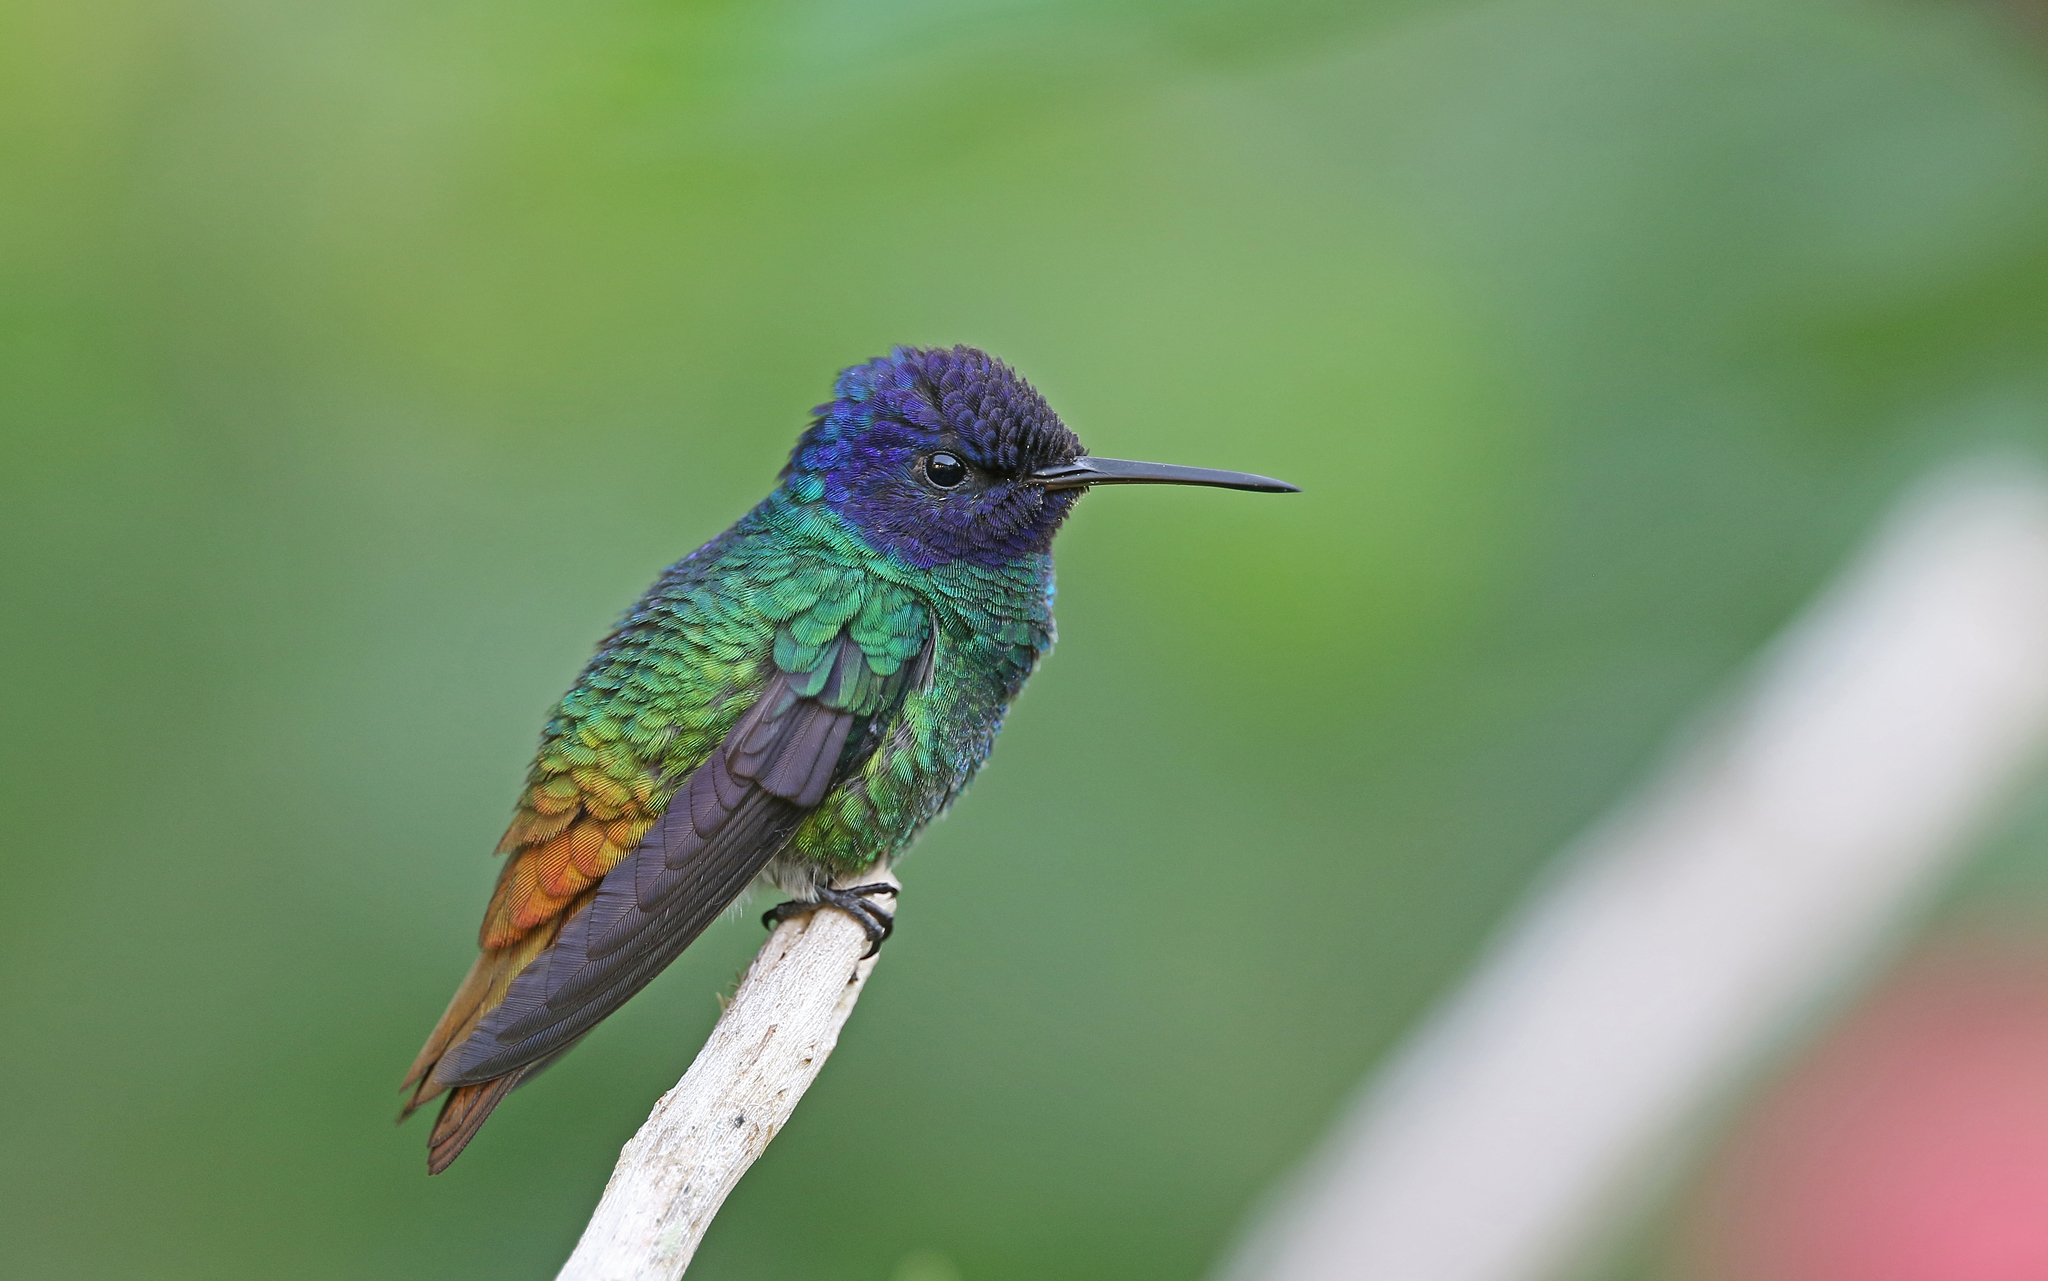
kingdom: Animalia
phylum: Chordata
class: Aves
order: Apodiformes
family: Trochilidae
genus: Chrysuronia
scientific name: Chrysuronia oenone
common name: Golden-tailed sapphire
